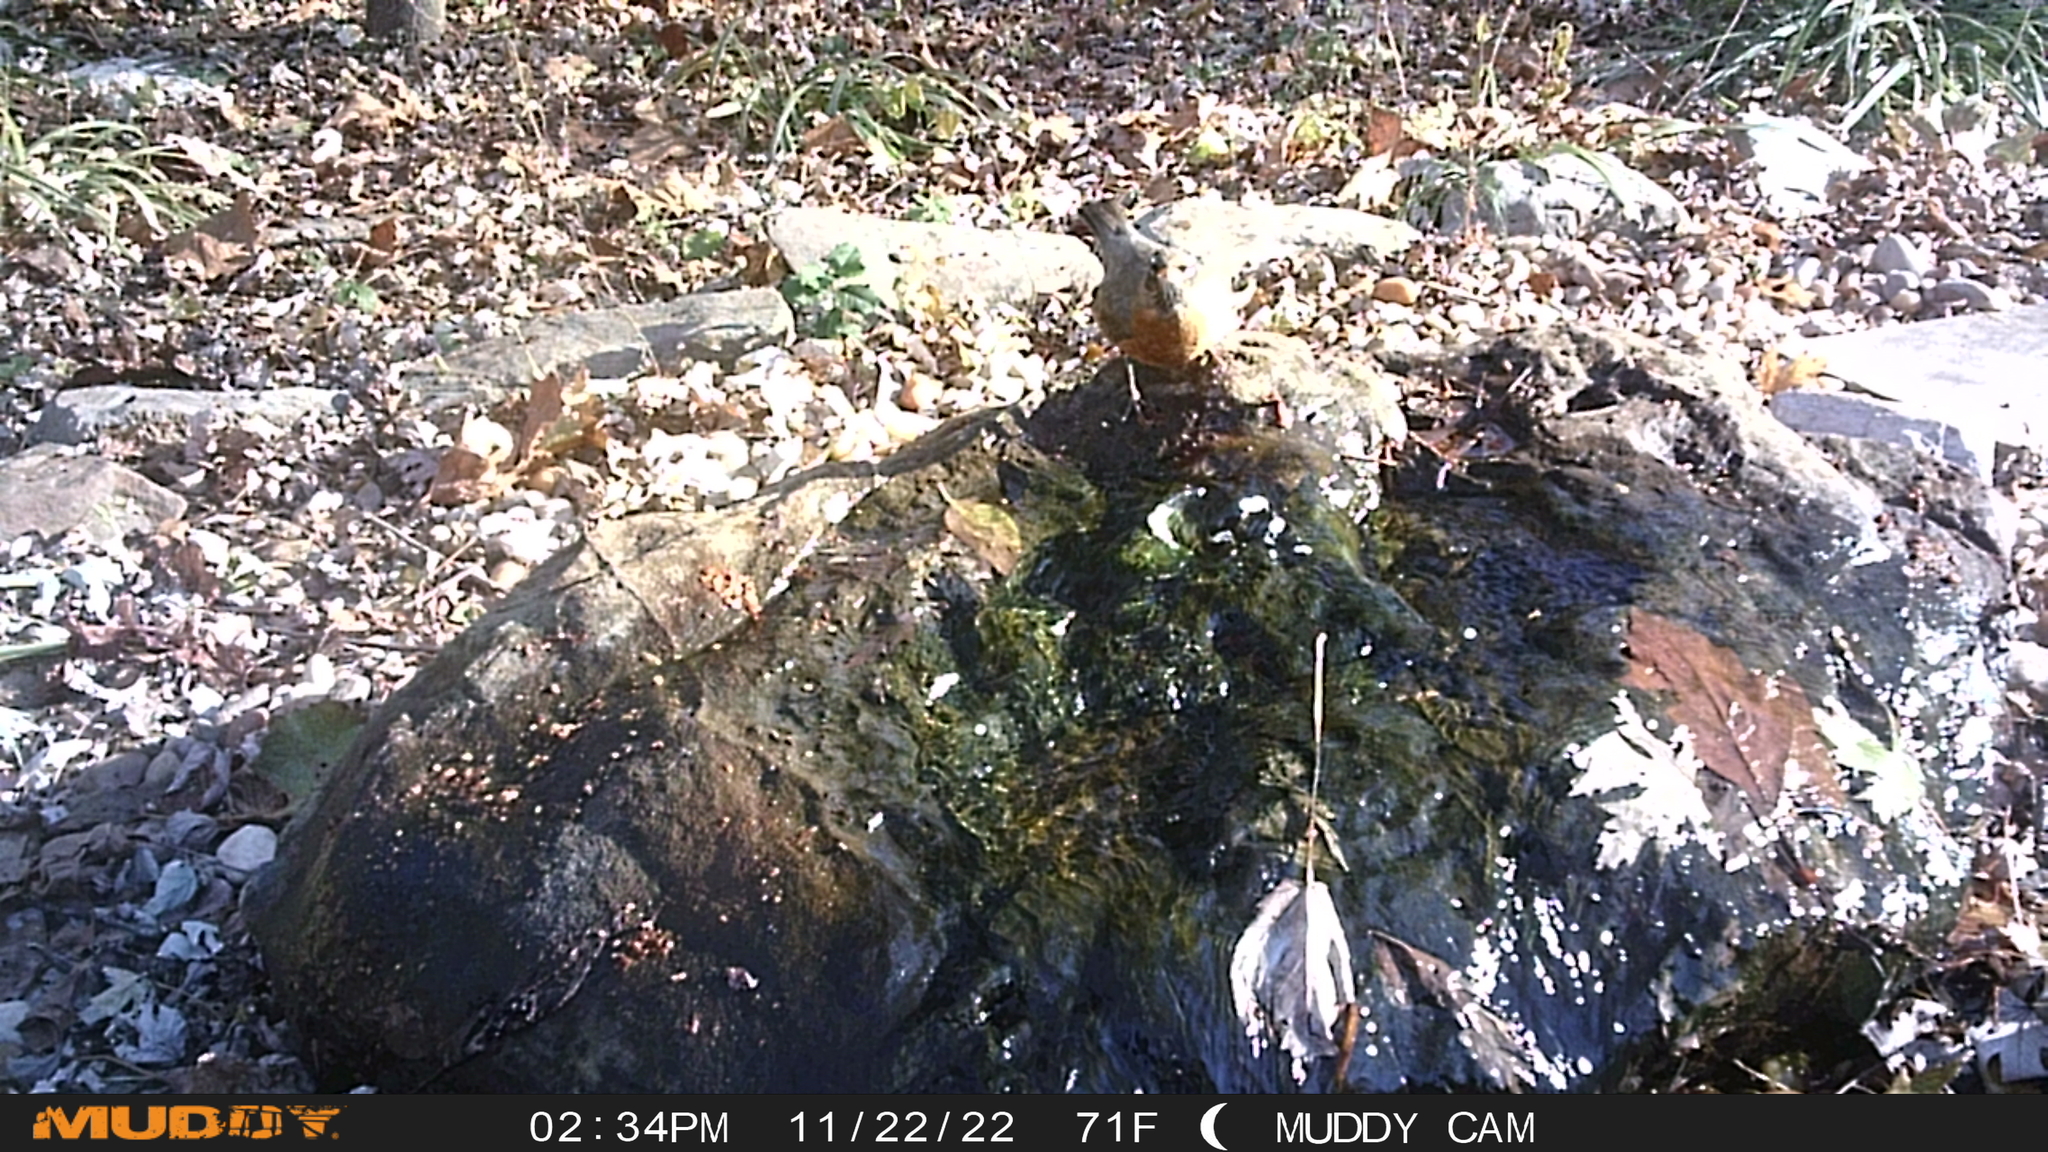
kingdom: Animalia
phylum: Chordata
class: Aves
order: Passeriformes
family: Turdidae
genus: Turdus
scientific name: Turdus migratorius
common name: American robin
